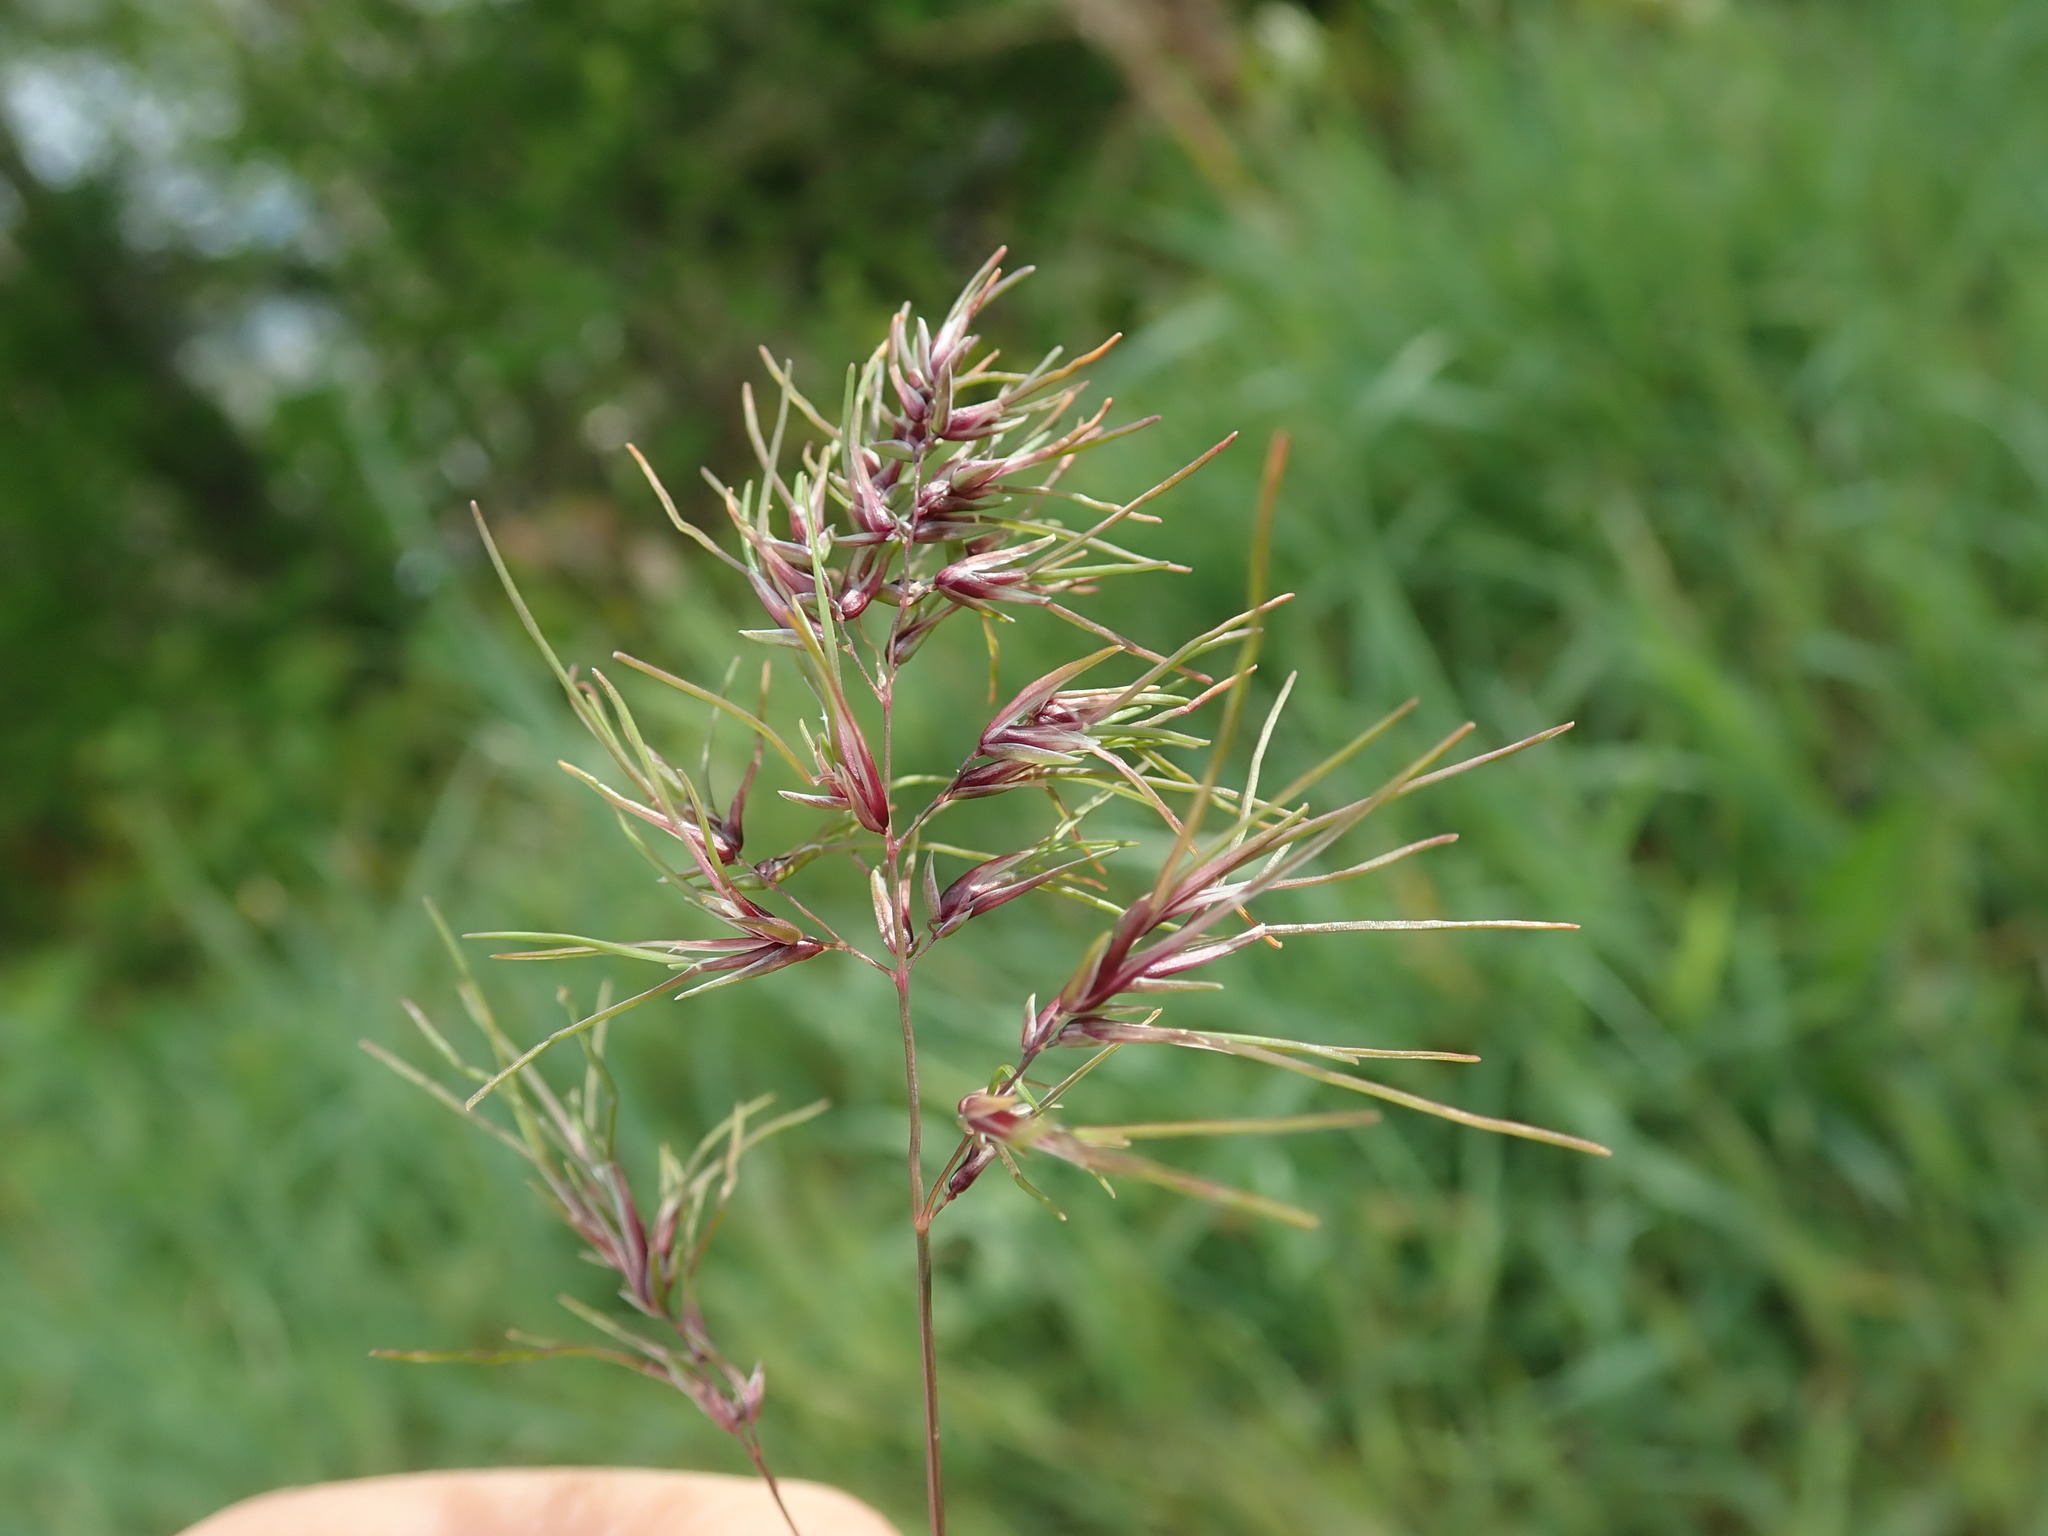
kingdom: Plantae
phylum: Tracheophyta
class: Liliopsida
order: Poales
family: Poaceae
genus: Poa
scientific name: Poa bulbosa
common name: Bulbous bluegrass
